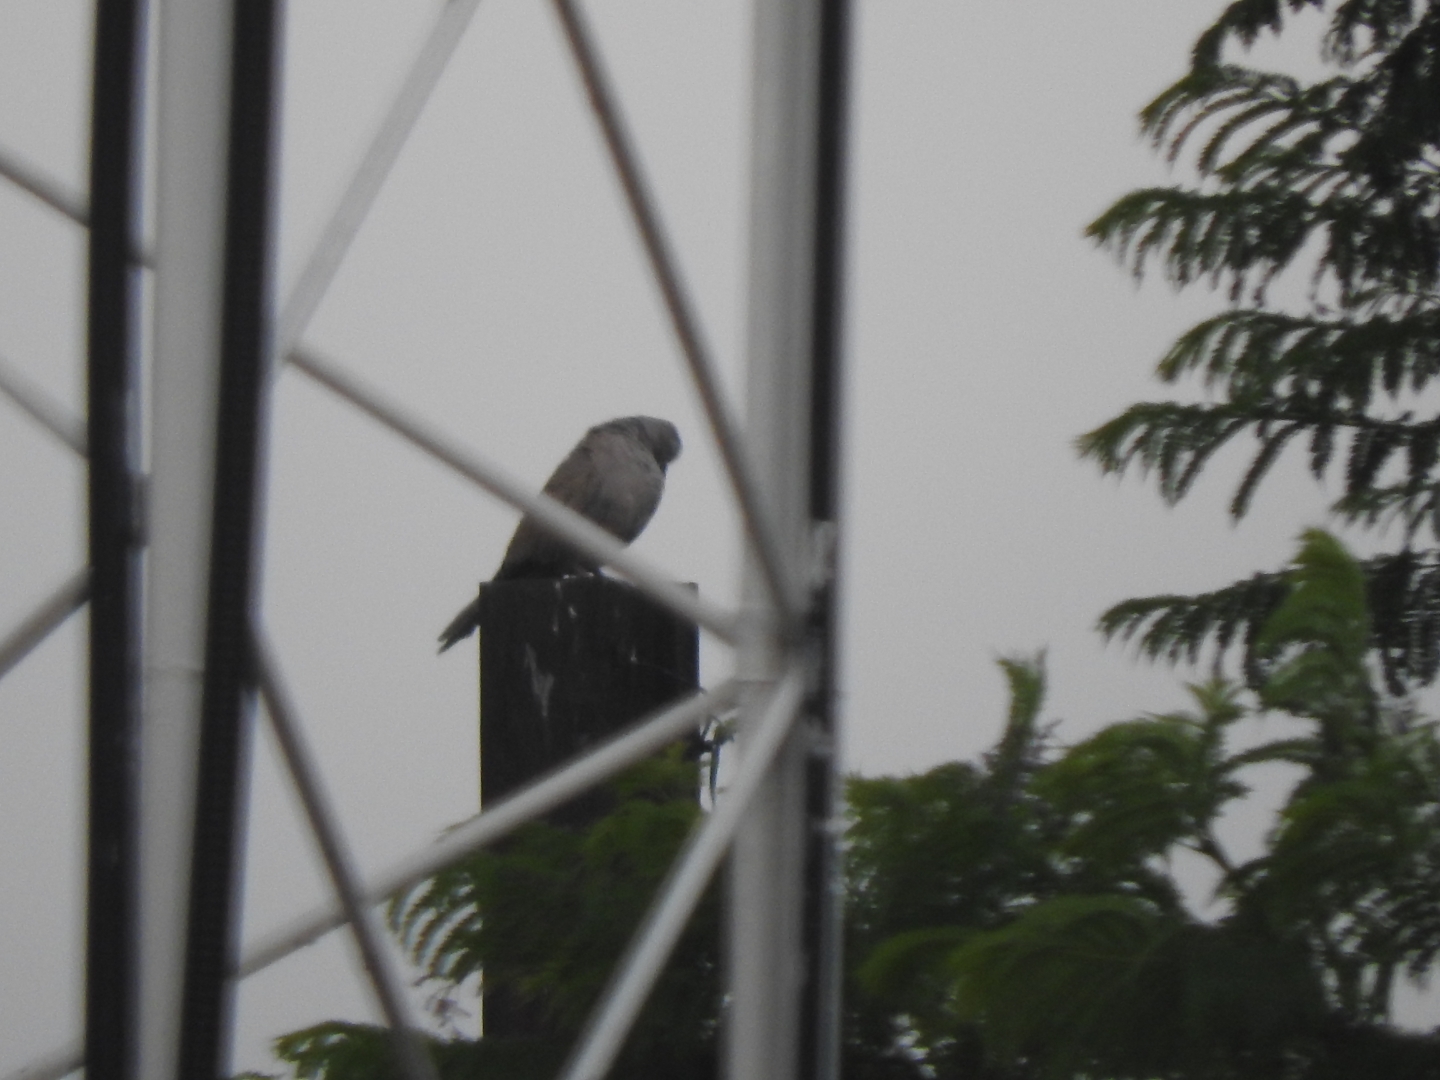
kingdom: Animalia
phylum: Chordata
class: Aves
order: Columbiformes
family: Columbidae
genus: Streptopelia
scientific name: Streptopelia decaocto
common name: Eurasian collared dove
